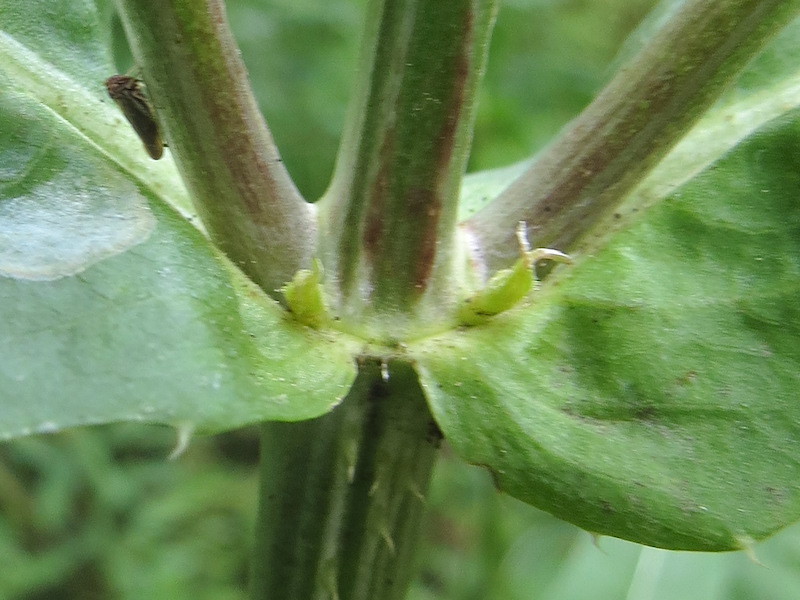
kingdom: Plantae
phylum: Tracheophyta
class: Magnoliopsida
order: Dipsacales
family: Caprifoliaceae
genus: Dipsacus
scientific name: Dipsacus fullonum
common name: Teasel
